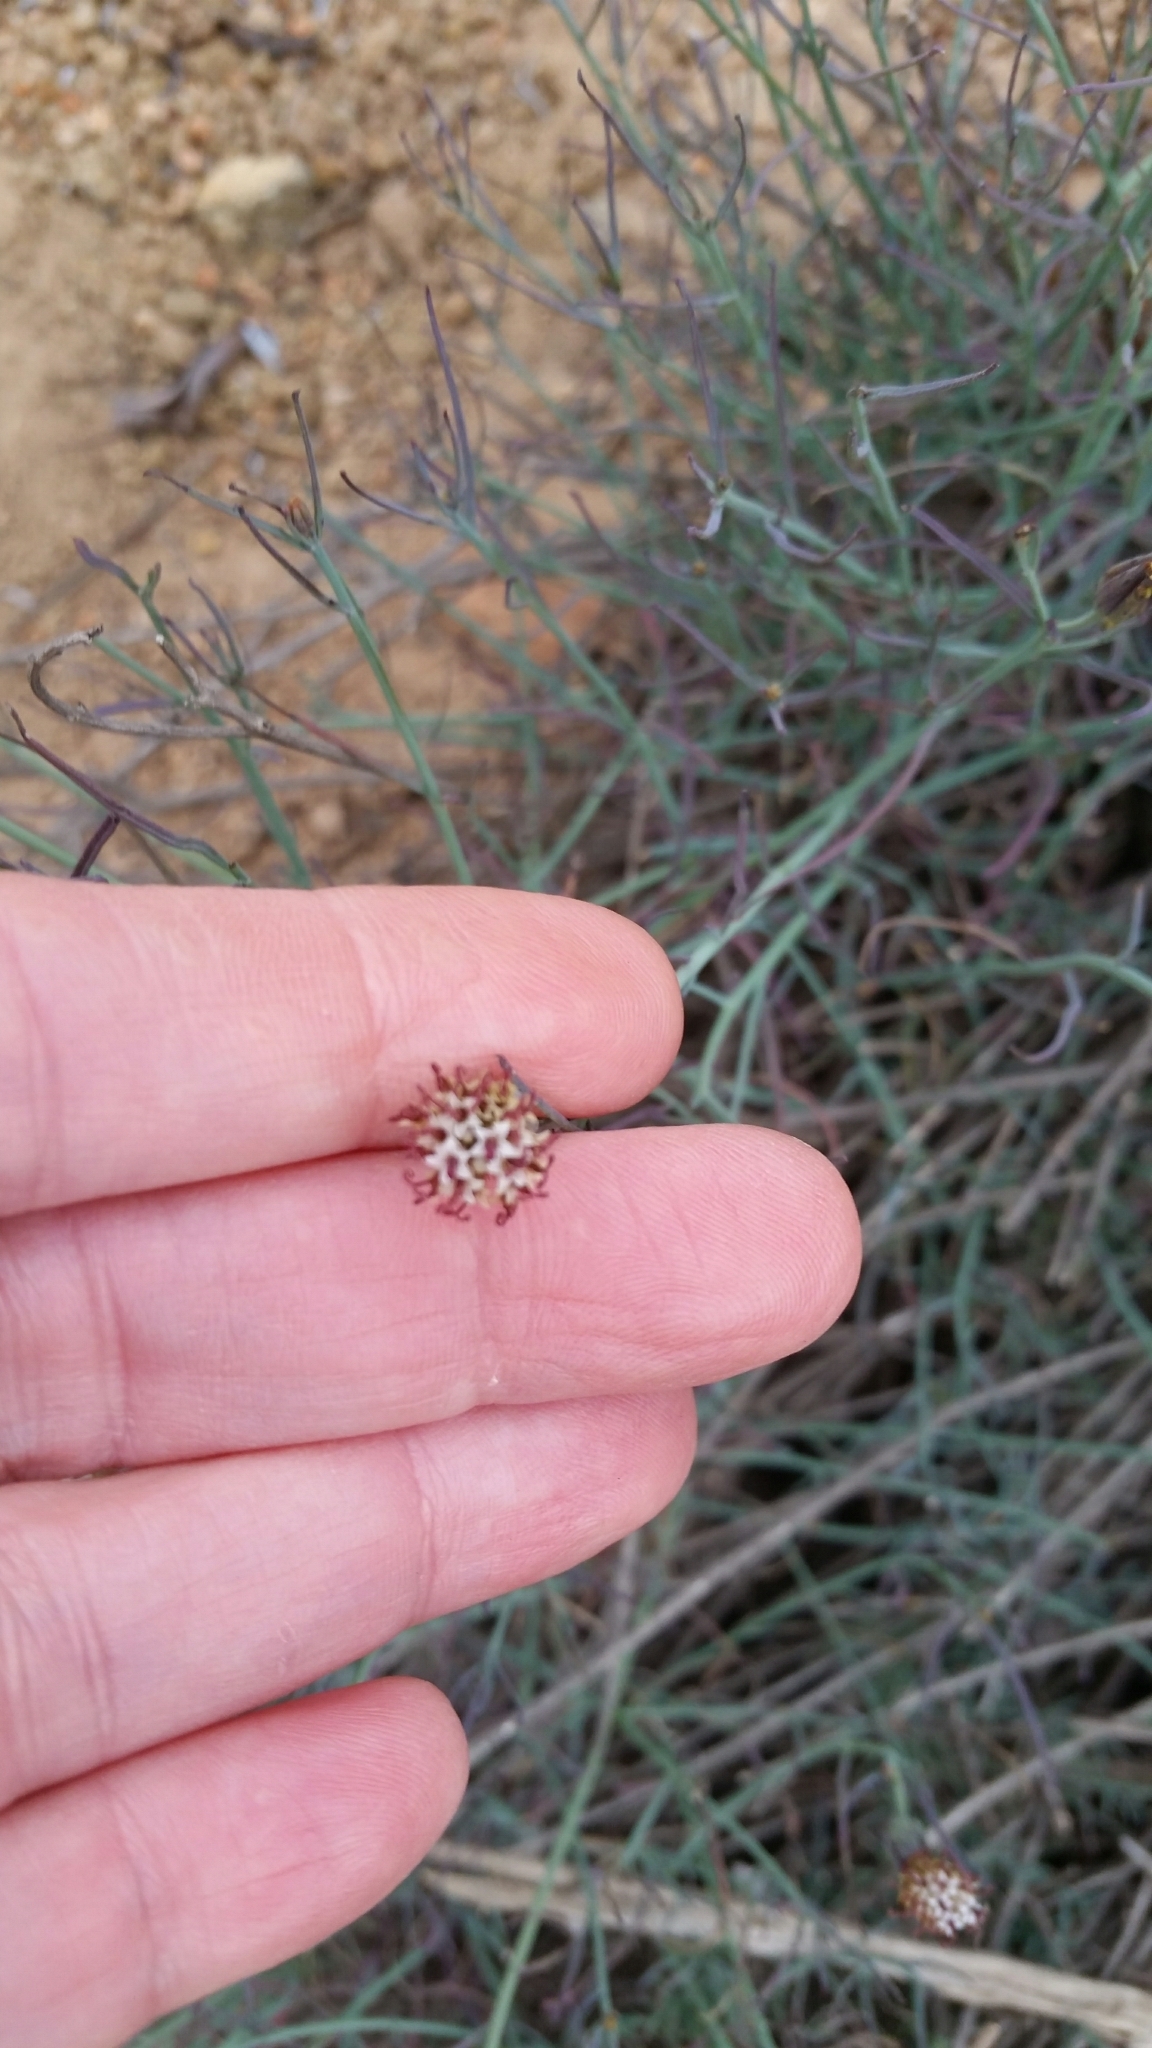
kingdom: Plantae
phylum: Tracheophyta
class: Magnoliopsida
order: Asterales
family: Asteraceae
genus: Porophyllum
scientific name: Porophyllum gracile
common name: Odora
